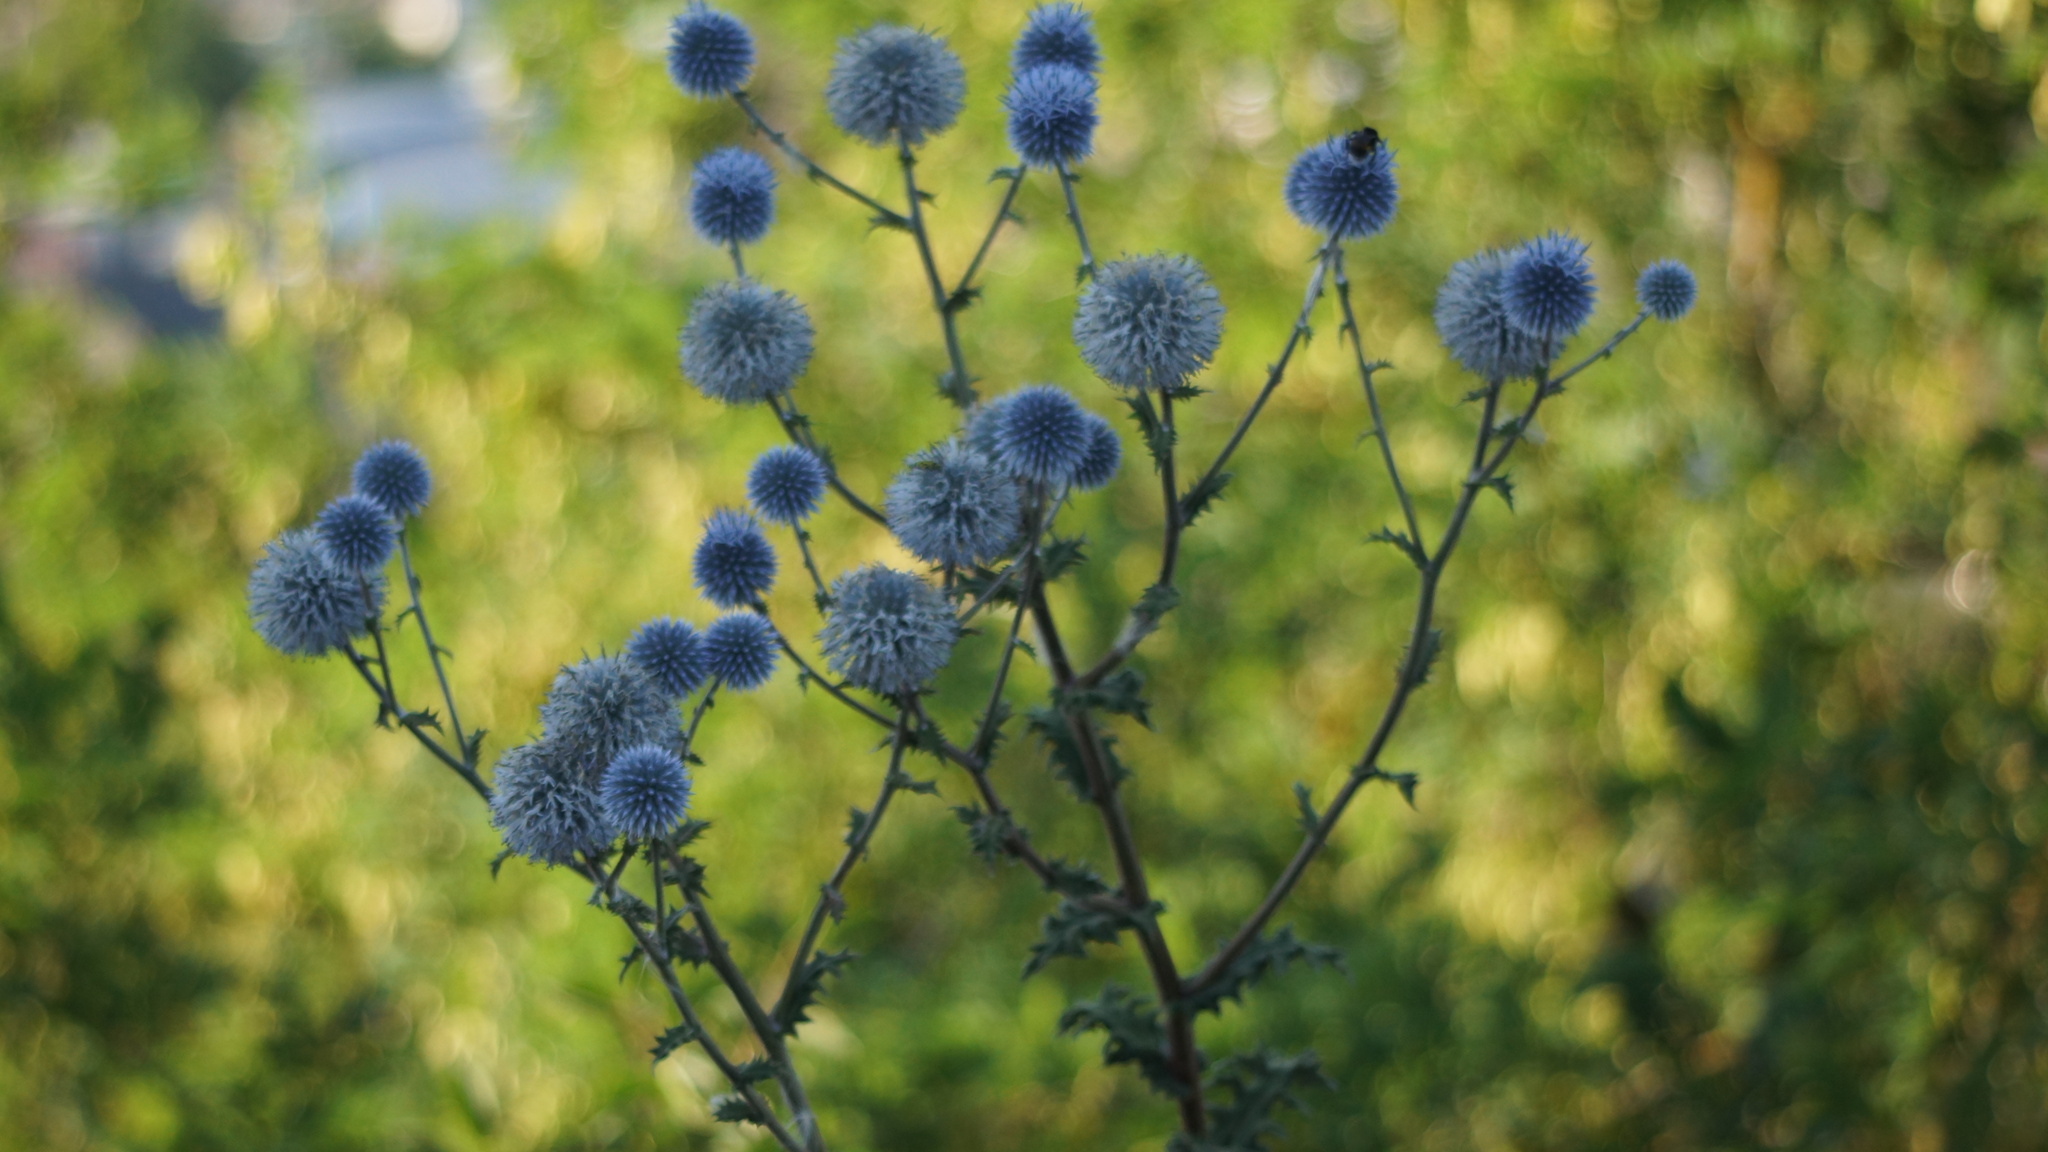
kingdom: Plantae
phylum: Tracheophyta
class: Magnoliopsida
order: Asterales
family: Asteraceae
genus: Echinops
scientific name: Echinops sphaerocephalus
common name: Glandular globe-thistle
